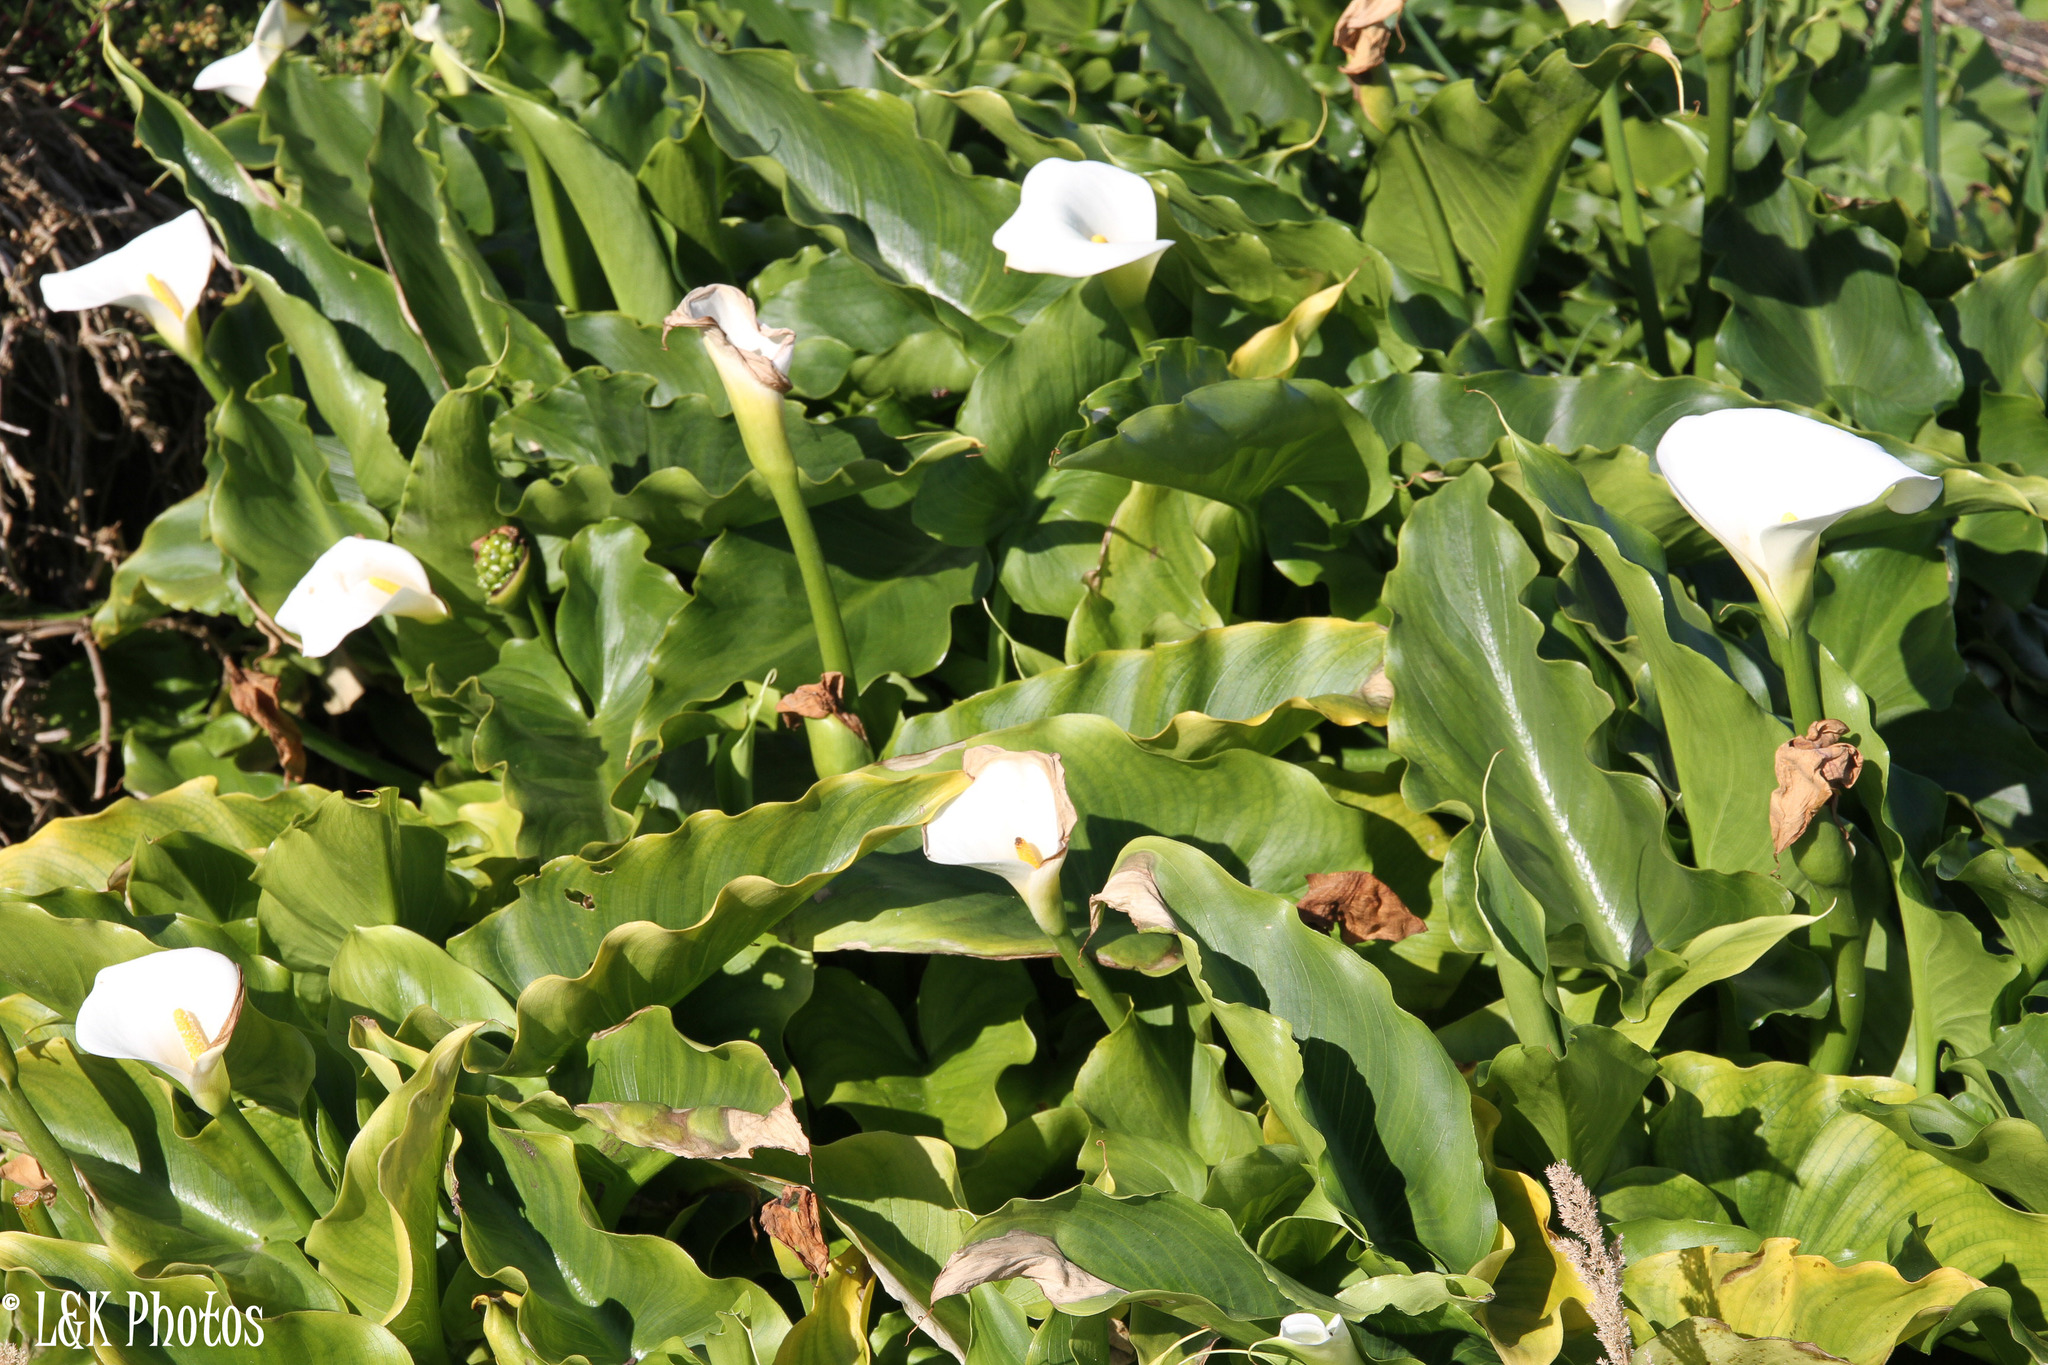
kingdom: Plantae
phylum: Tracheophyta
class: Liliopsida
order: Alismatales
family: Araceae
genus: Zantedeschia
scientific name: Zantedeschia aethiopica
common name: Altar-lily
